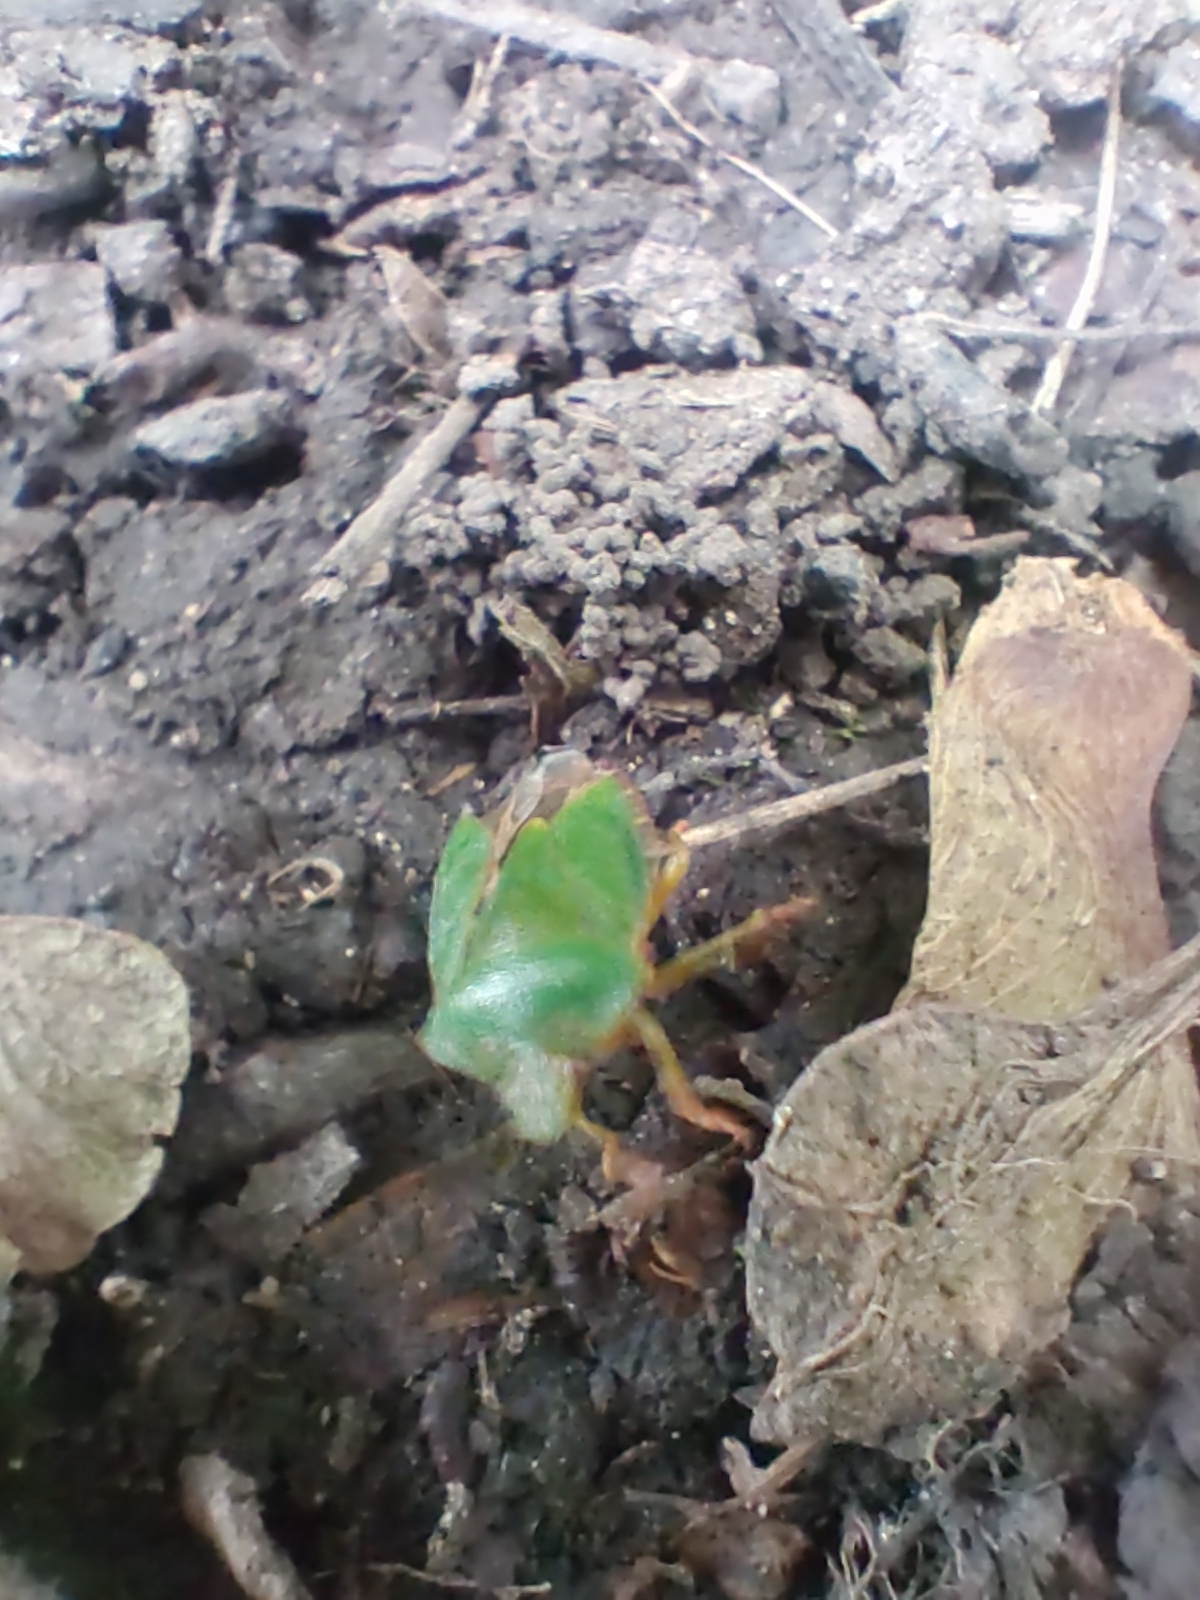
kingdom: Animalia
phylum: Arthropoda
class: Insecta
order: Hemiptera
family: Pentatomidae
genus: Palomena
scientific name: Palomena prasina
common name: Green shieldbug
